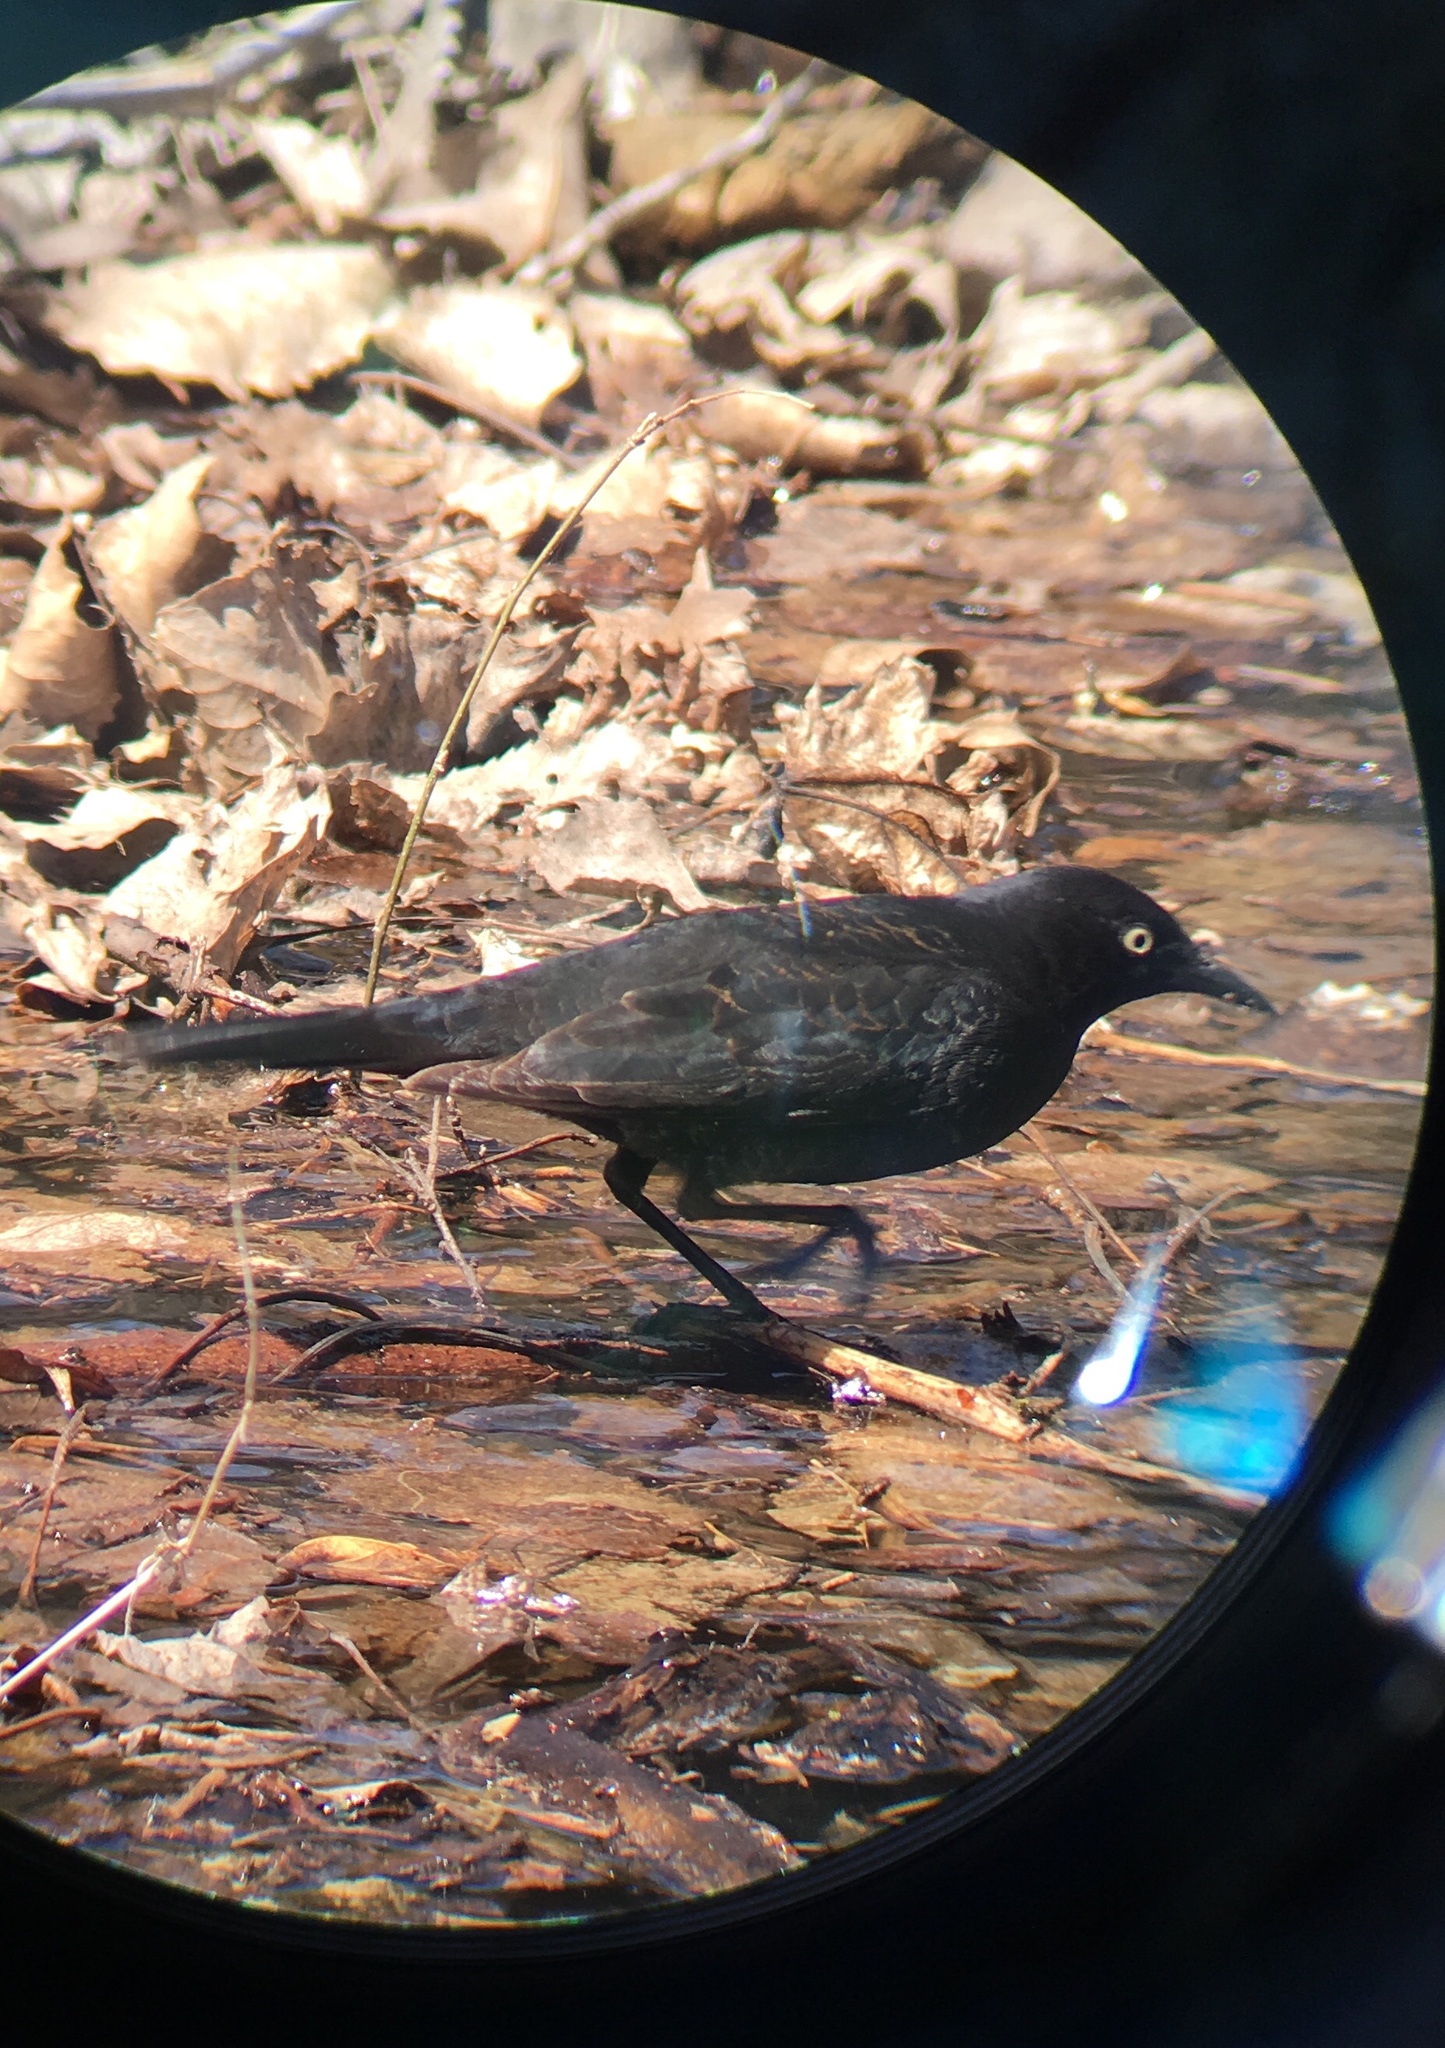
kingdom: Animalia
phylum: Chordata
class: Aves
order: Passeriformes
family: Icteridae
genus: Euphagus
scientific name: Euphagus carolinus
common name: Rusty blackbird
